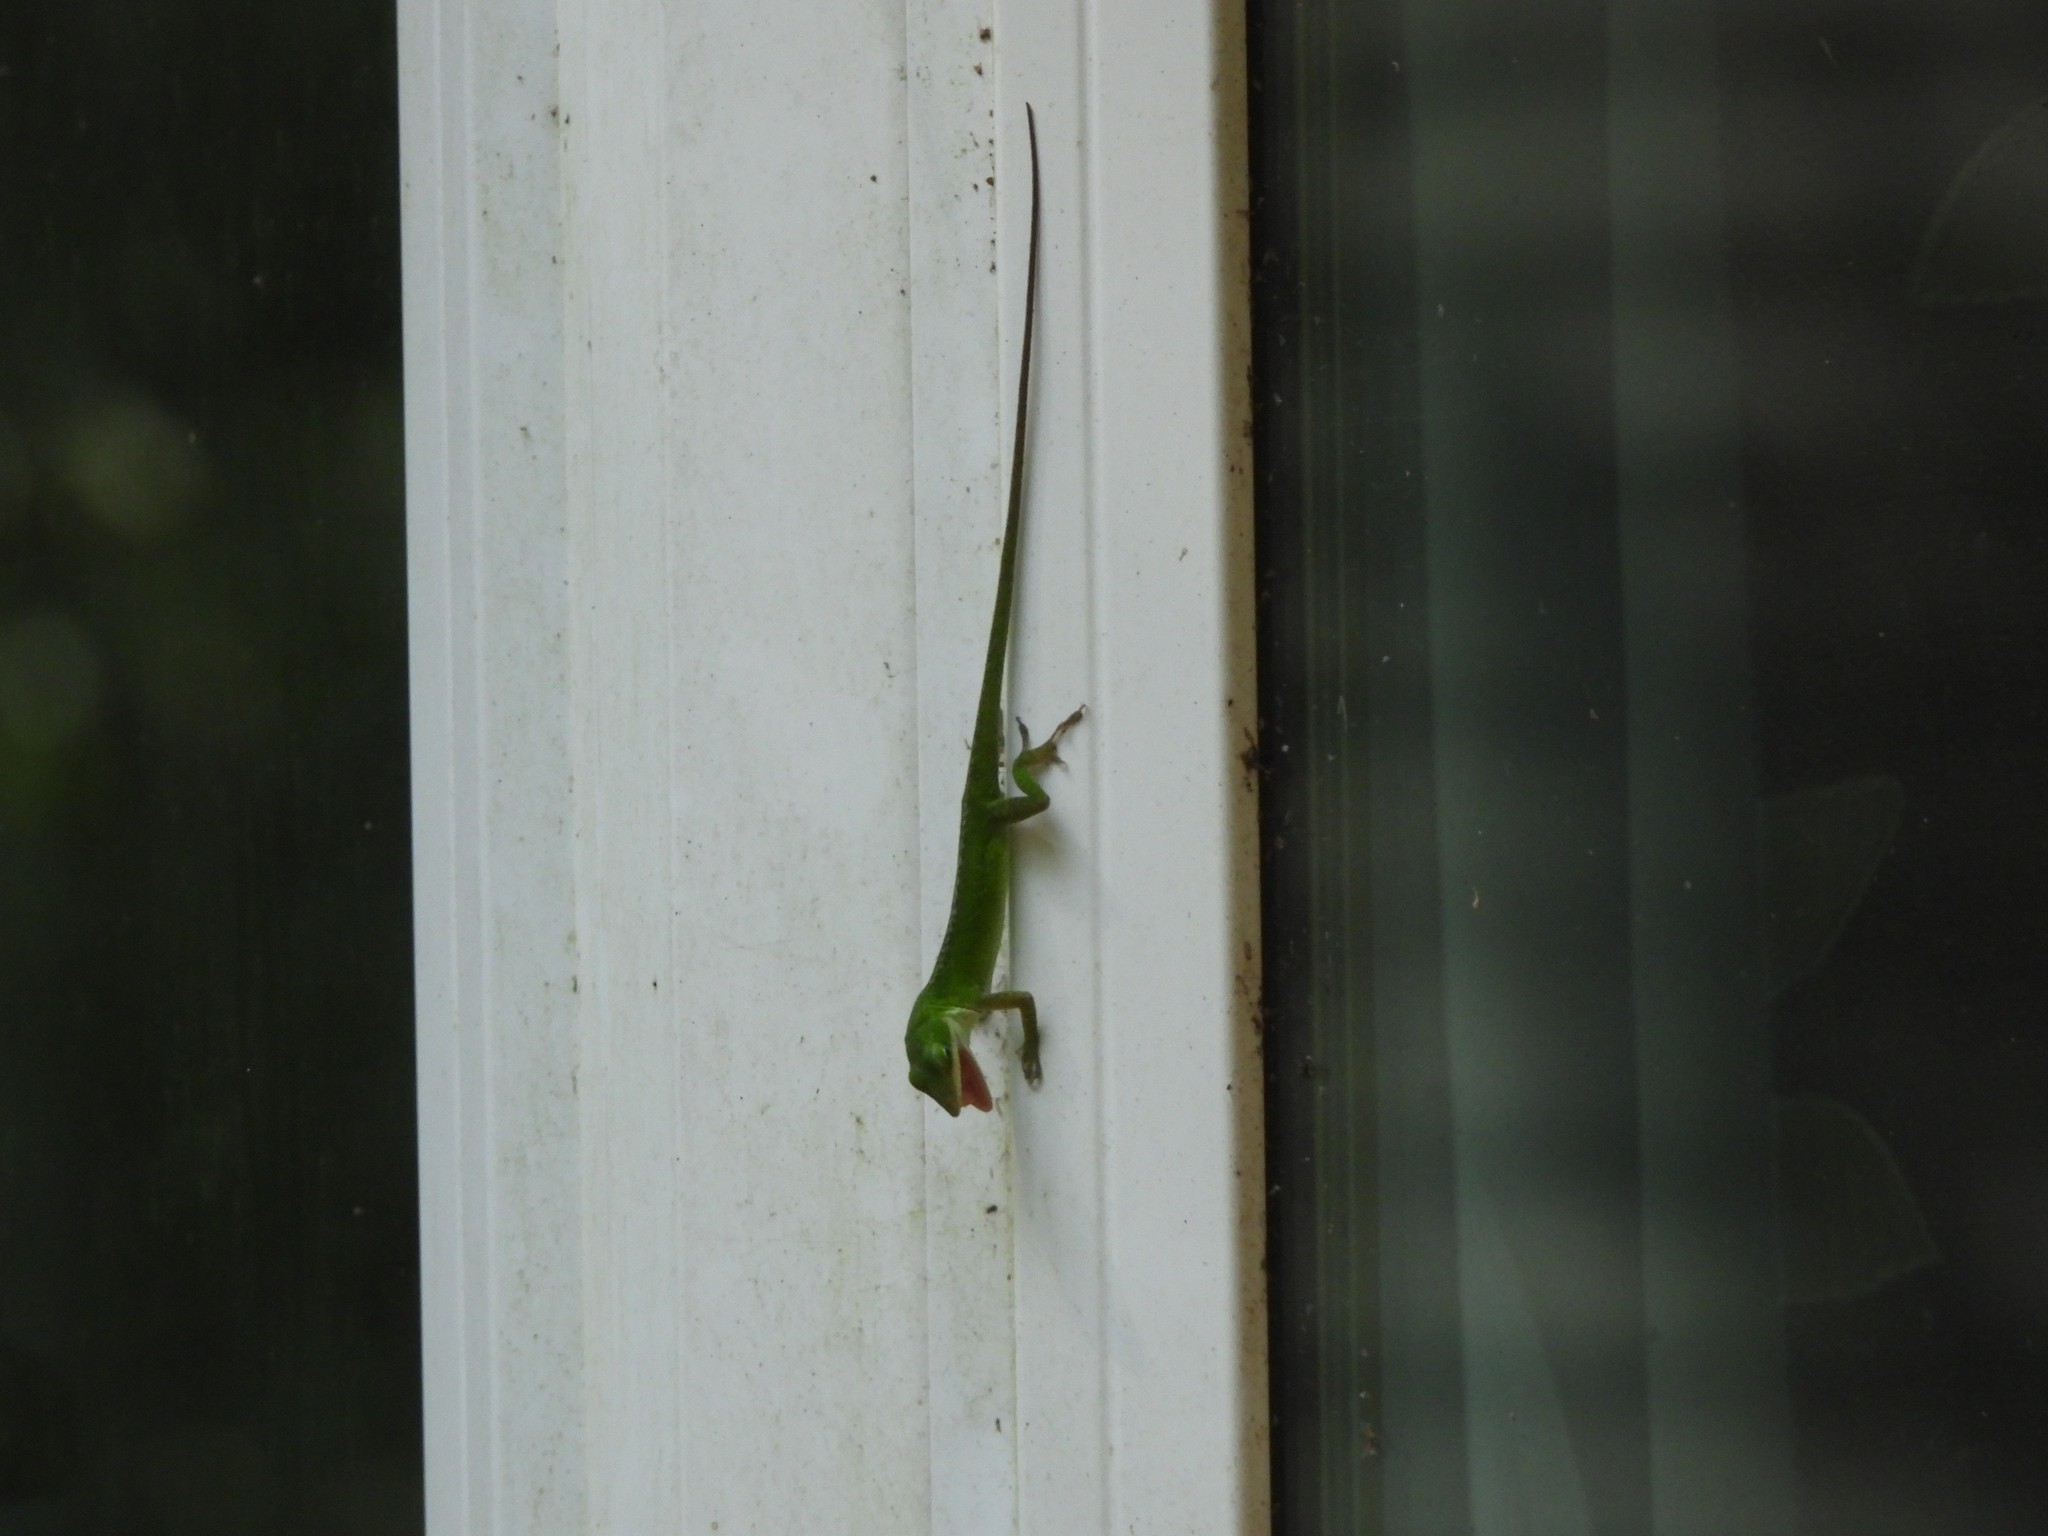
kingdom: Animalia
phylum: Chordata
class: Squamata
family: Dactyloidae
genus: Anolis
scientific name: Anolis carolinensis
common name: Green anole
